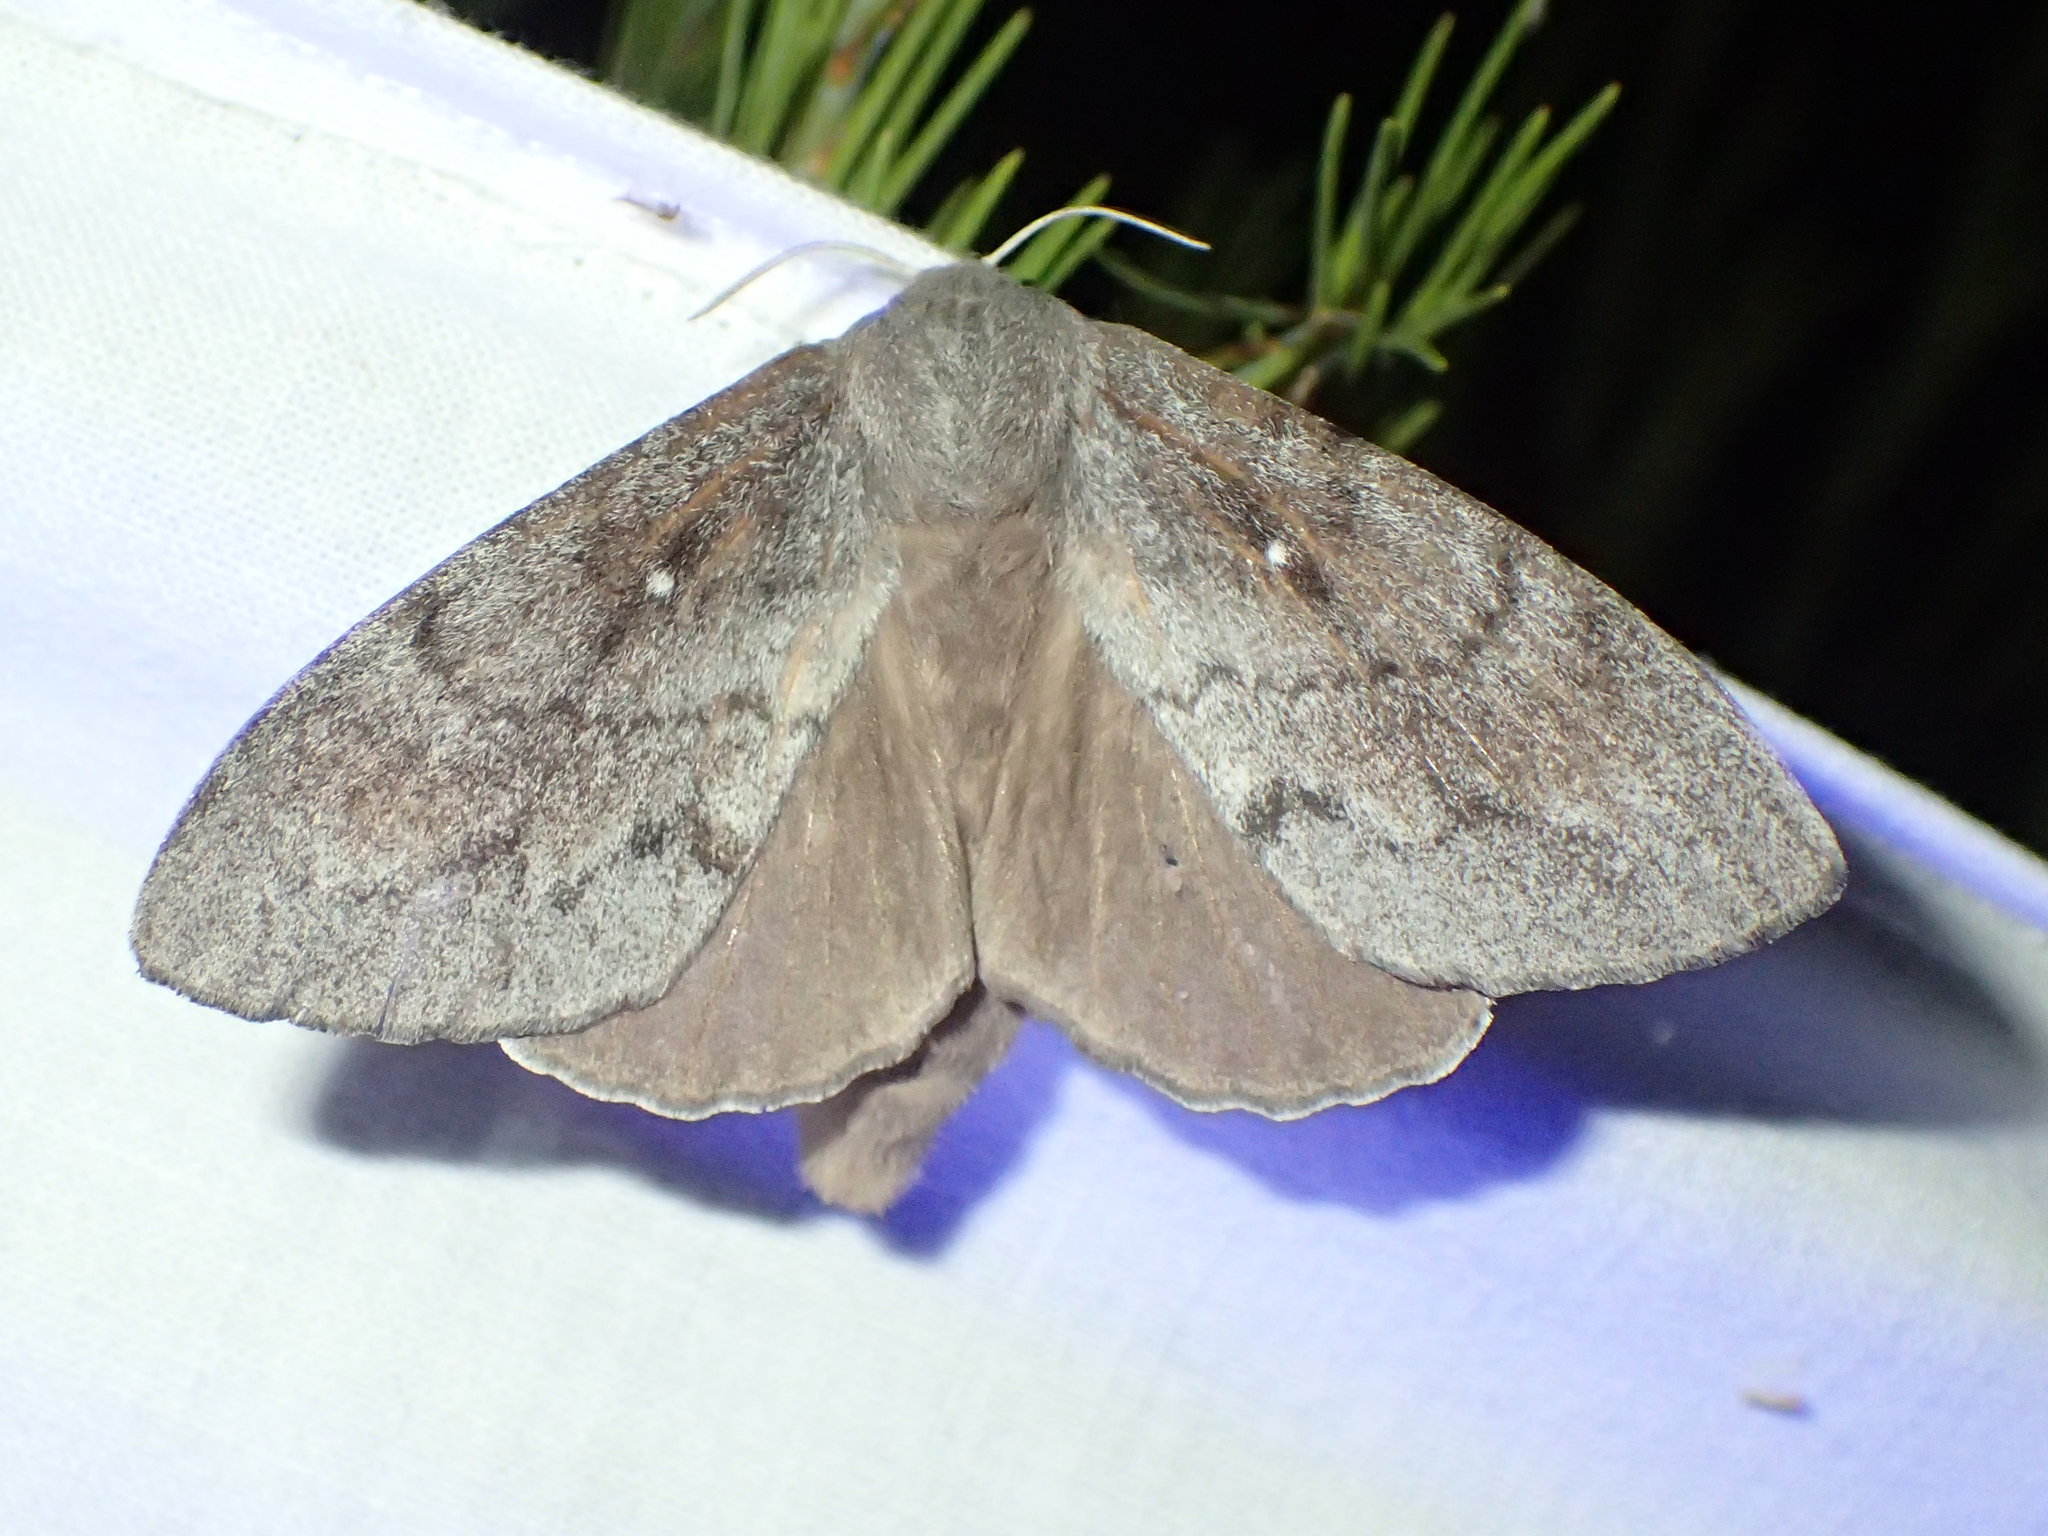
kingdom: Animalia
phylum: Arthropoda
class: Insecta
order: Lepidoptera
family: Lasiocampidae
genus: Dendrolimus
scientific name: Dendrolimus pini
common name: Pine-tree lappet
